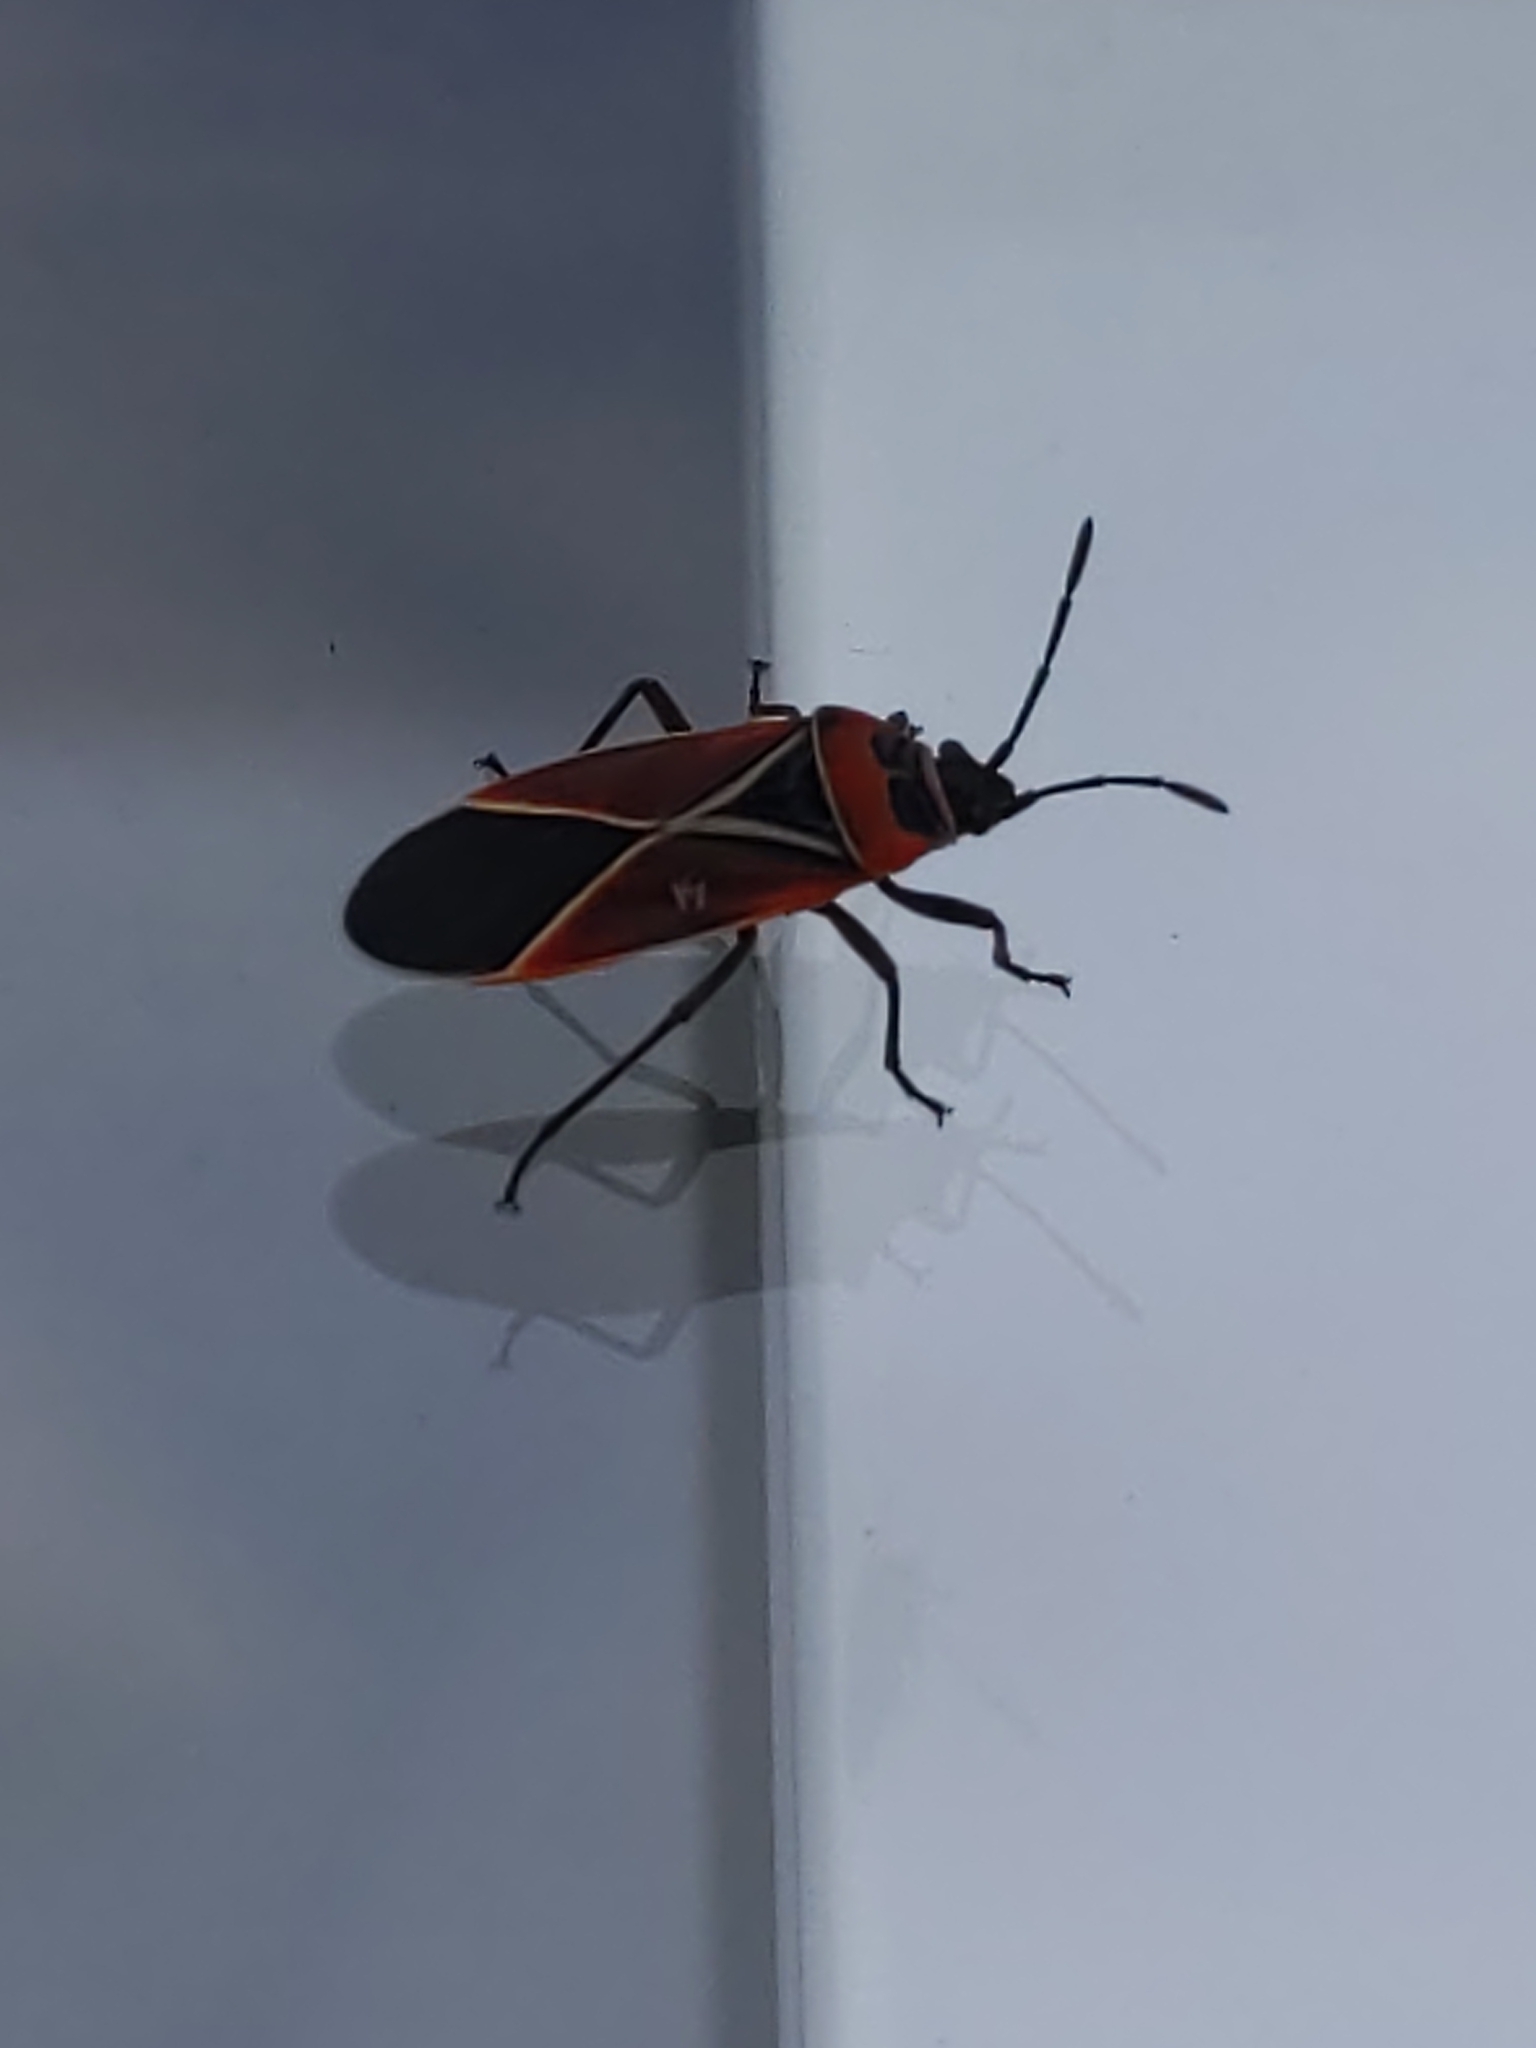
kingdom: Animalia
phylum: Arthropoda
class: Insecta
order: Hemiptera
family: Lygaeidae
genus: Neacoryphus
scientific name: Neacoryphus bicrucis
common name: Lygaeid bug
